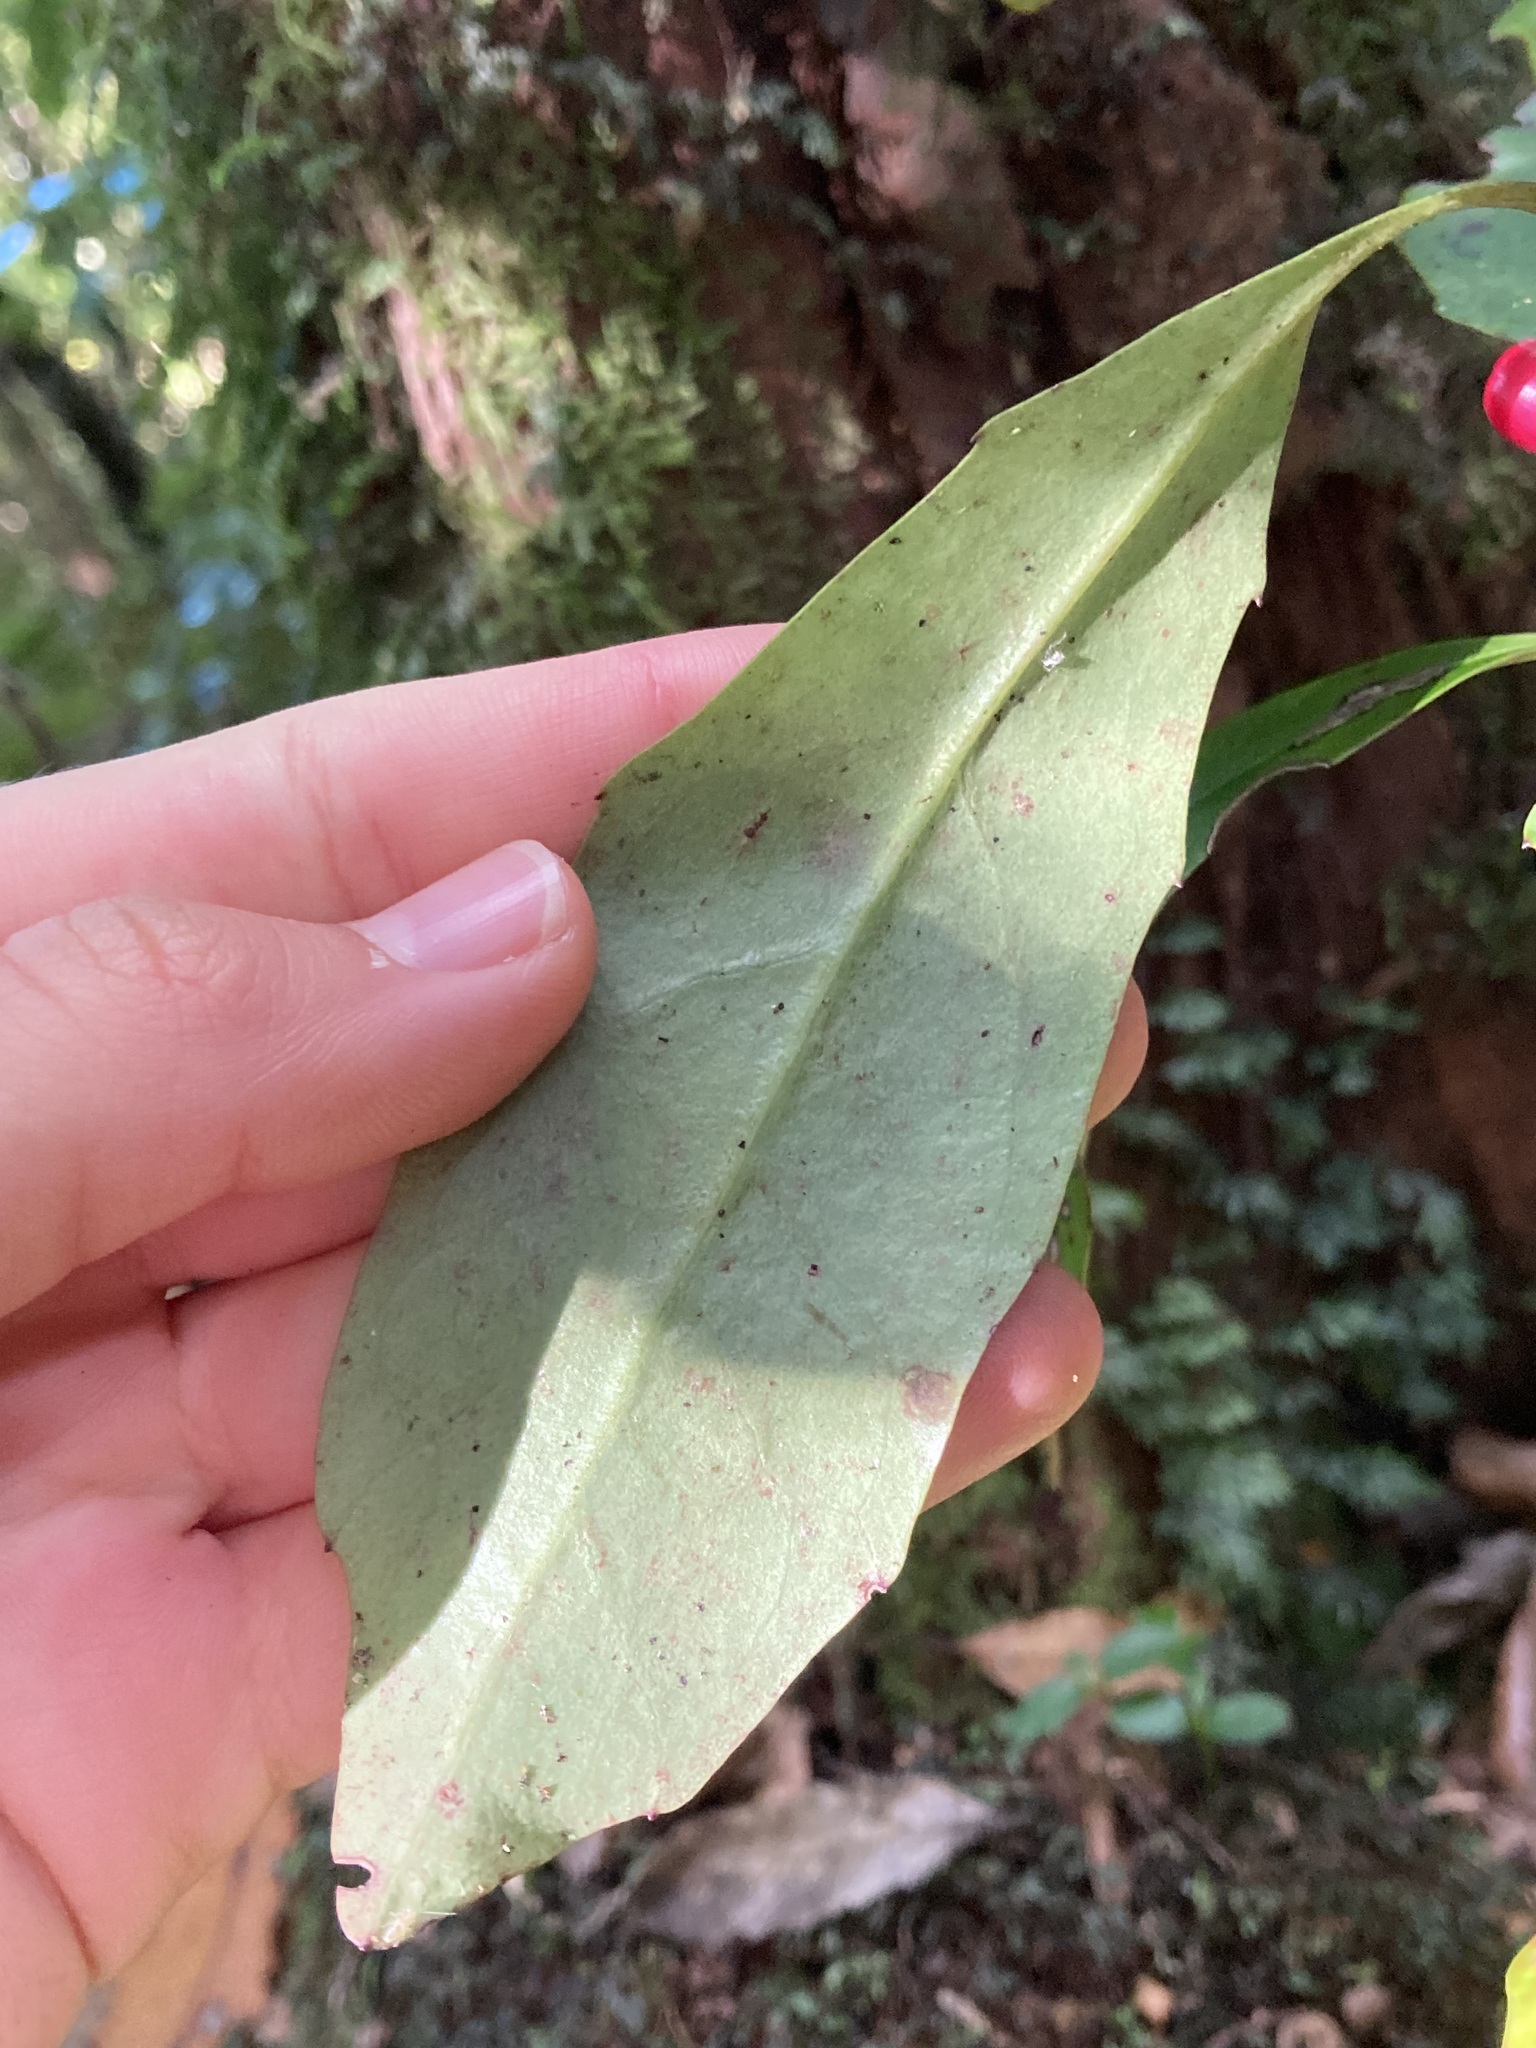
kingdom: Plantae
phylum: Tracheophyta
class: Magnoliopsida
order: Asterales
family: Alseuosmiaceae
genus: Alseuosmia
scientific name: Alseuosmia macrophylla
